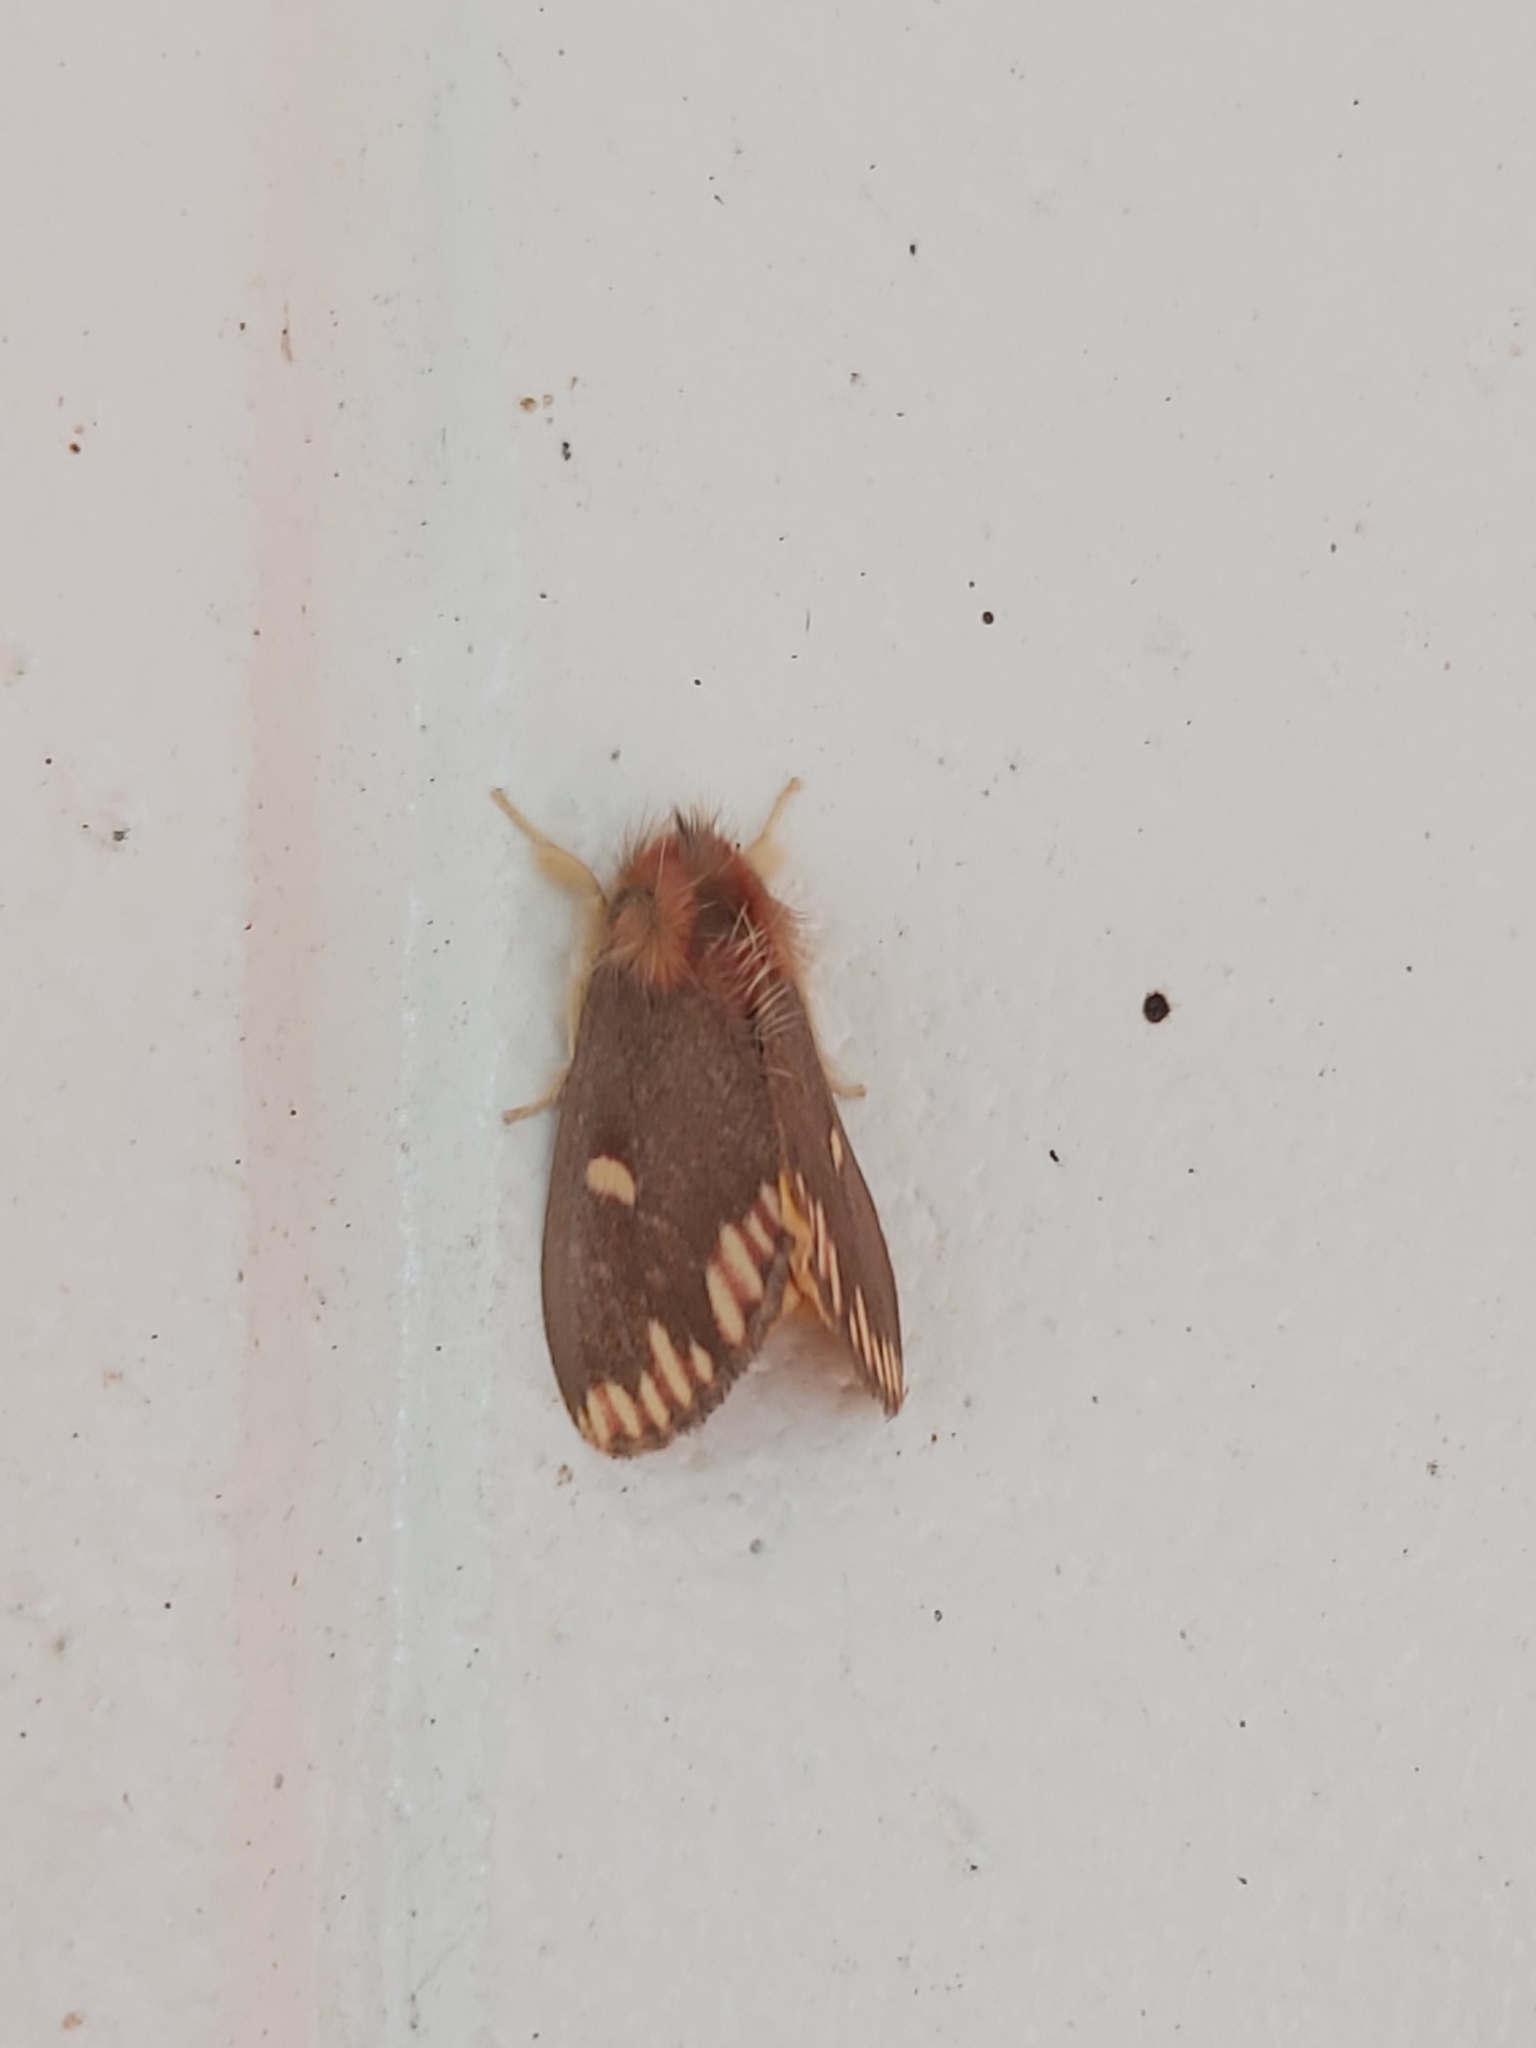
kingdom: Animalia
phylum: Arthropoda
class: Insecta
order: Lepidoptera
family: Erebidae
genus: Euproctis
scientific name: Euproctis actor
